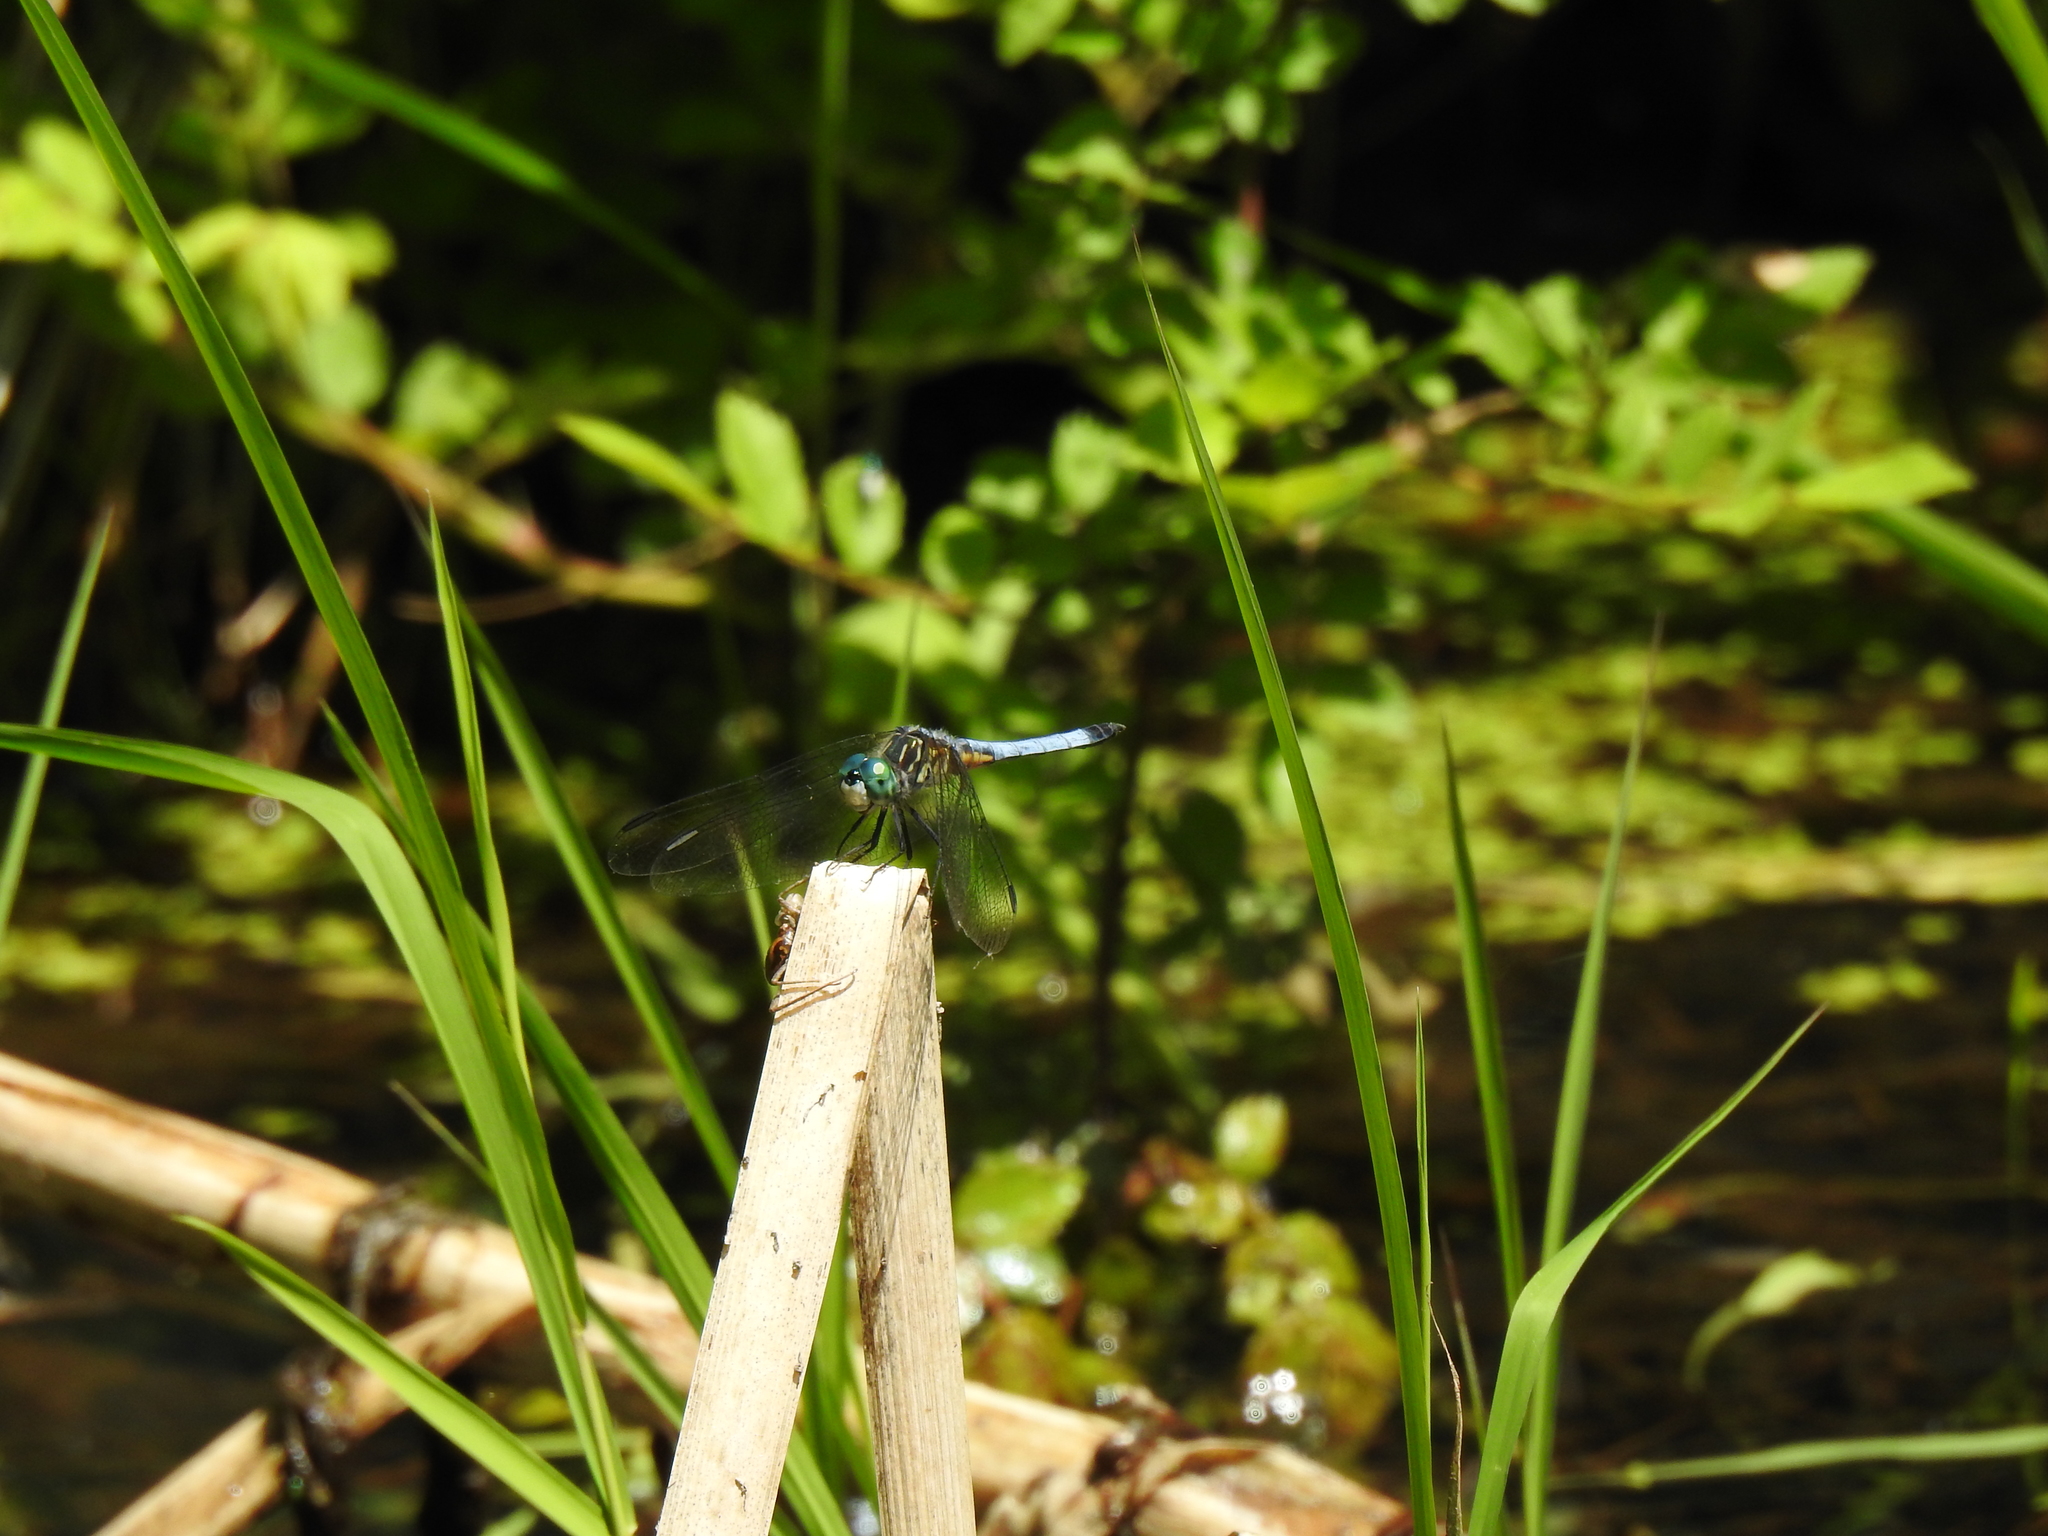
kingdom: Animalia
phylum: Arthropoda
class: Insecta
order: Odonata
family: Libellulidae
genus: Pachydiplax
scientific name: Pachydiplax longipennis
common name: Blue dasher
